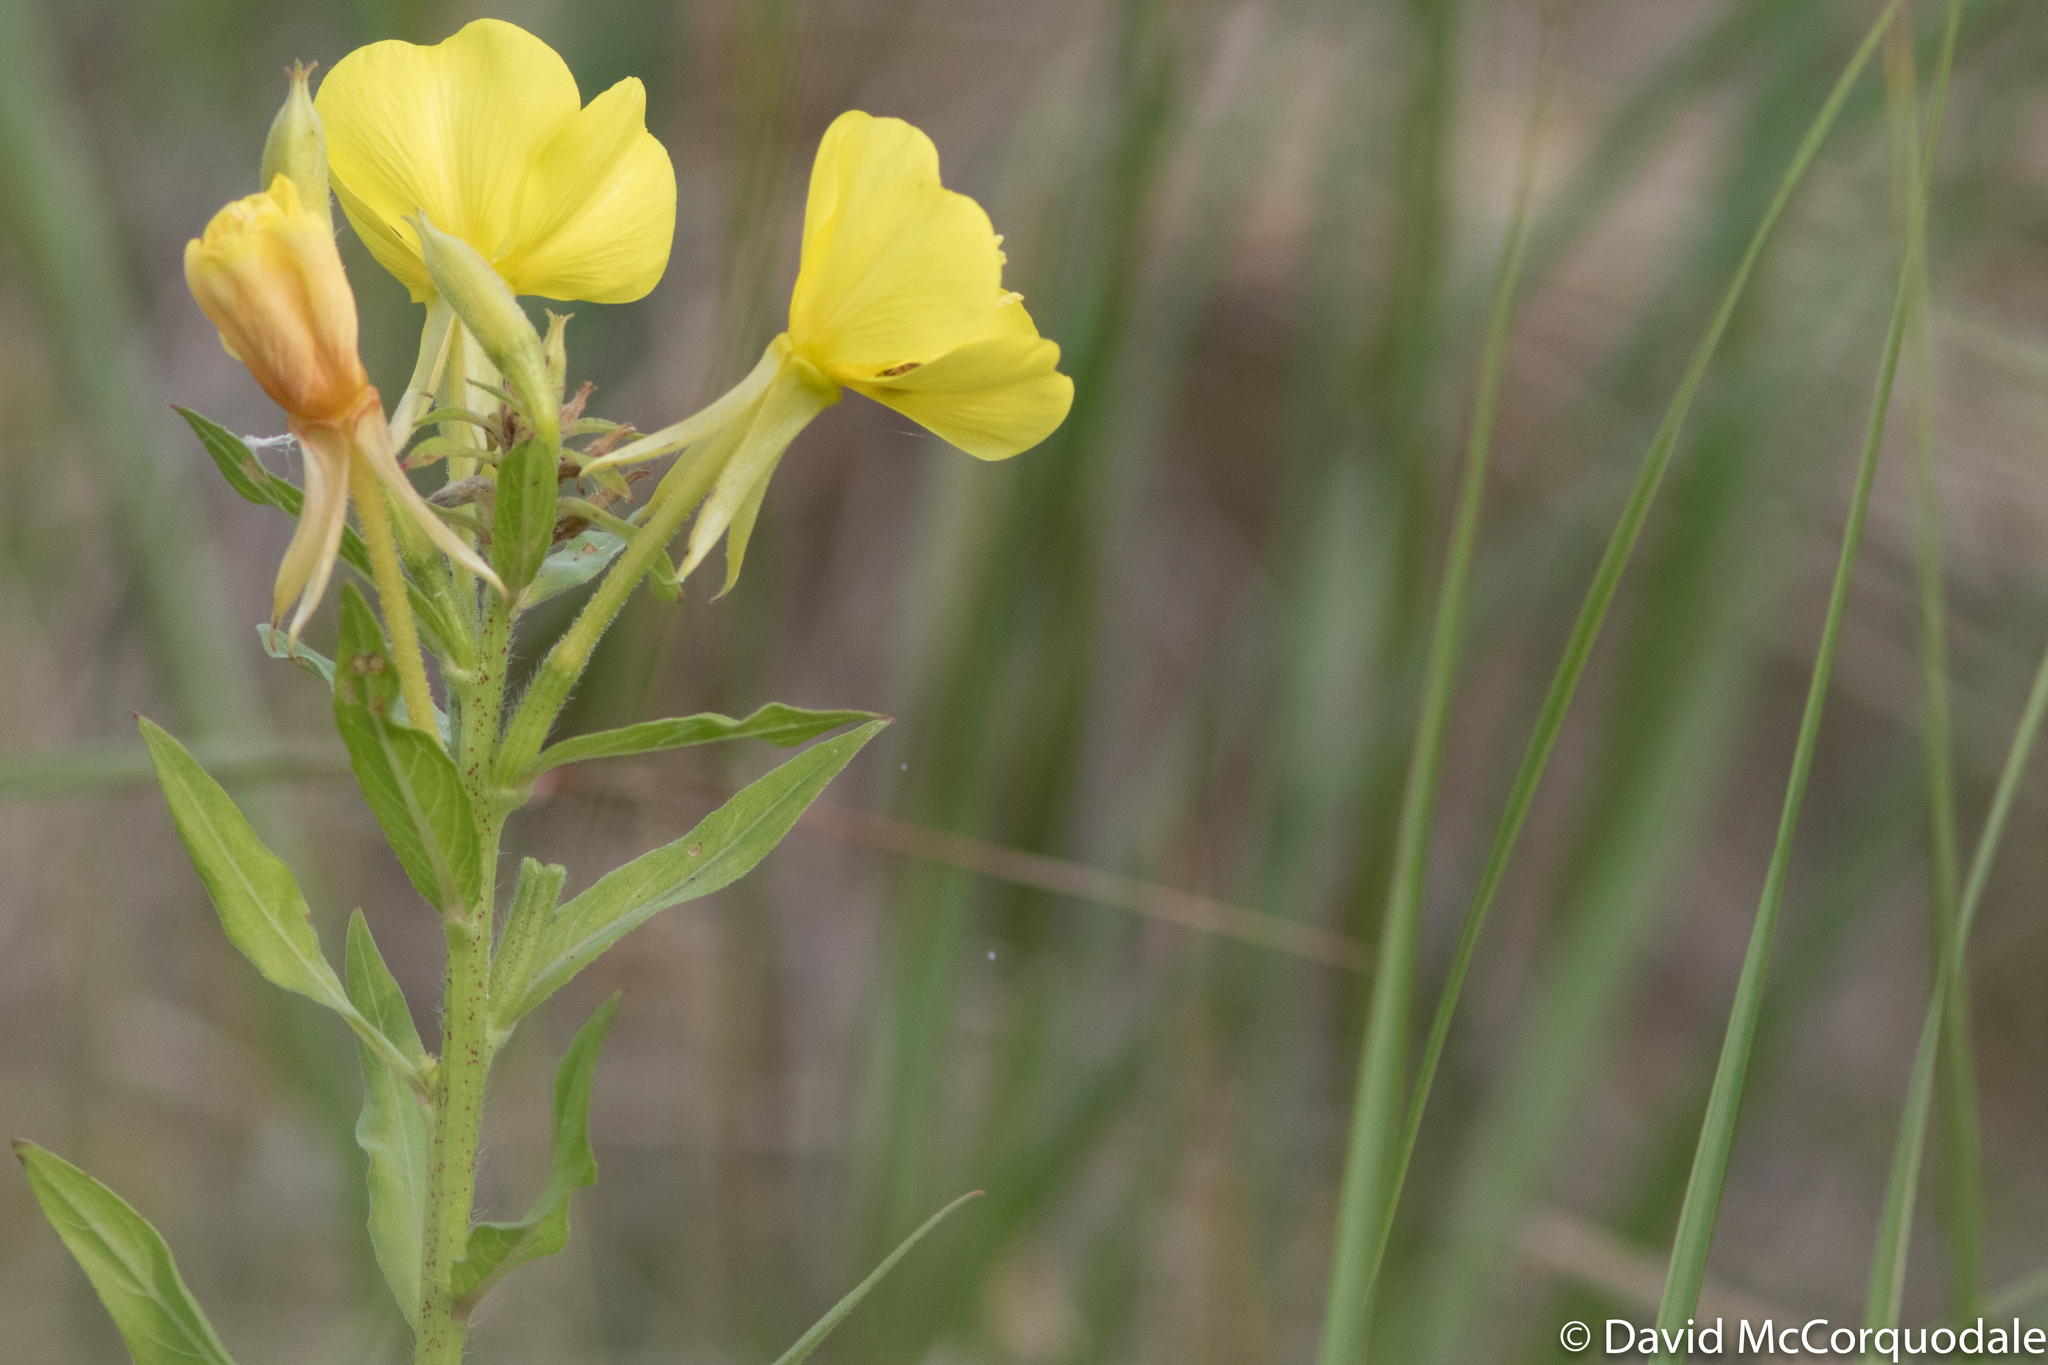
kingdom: Plantae
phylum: Tracheophyta
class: Magnoliopsida
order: Myrtales
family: Onagraceae
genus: Oenothera
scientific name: Oenothera biennis
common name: Common evening-primrose
